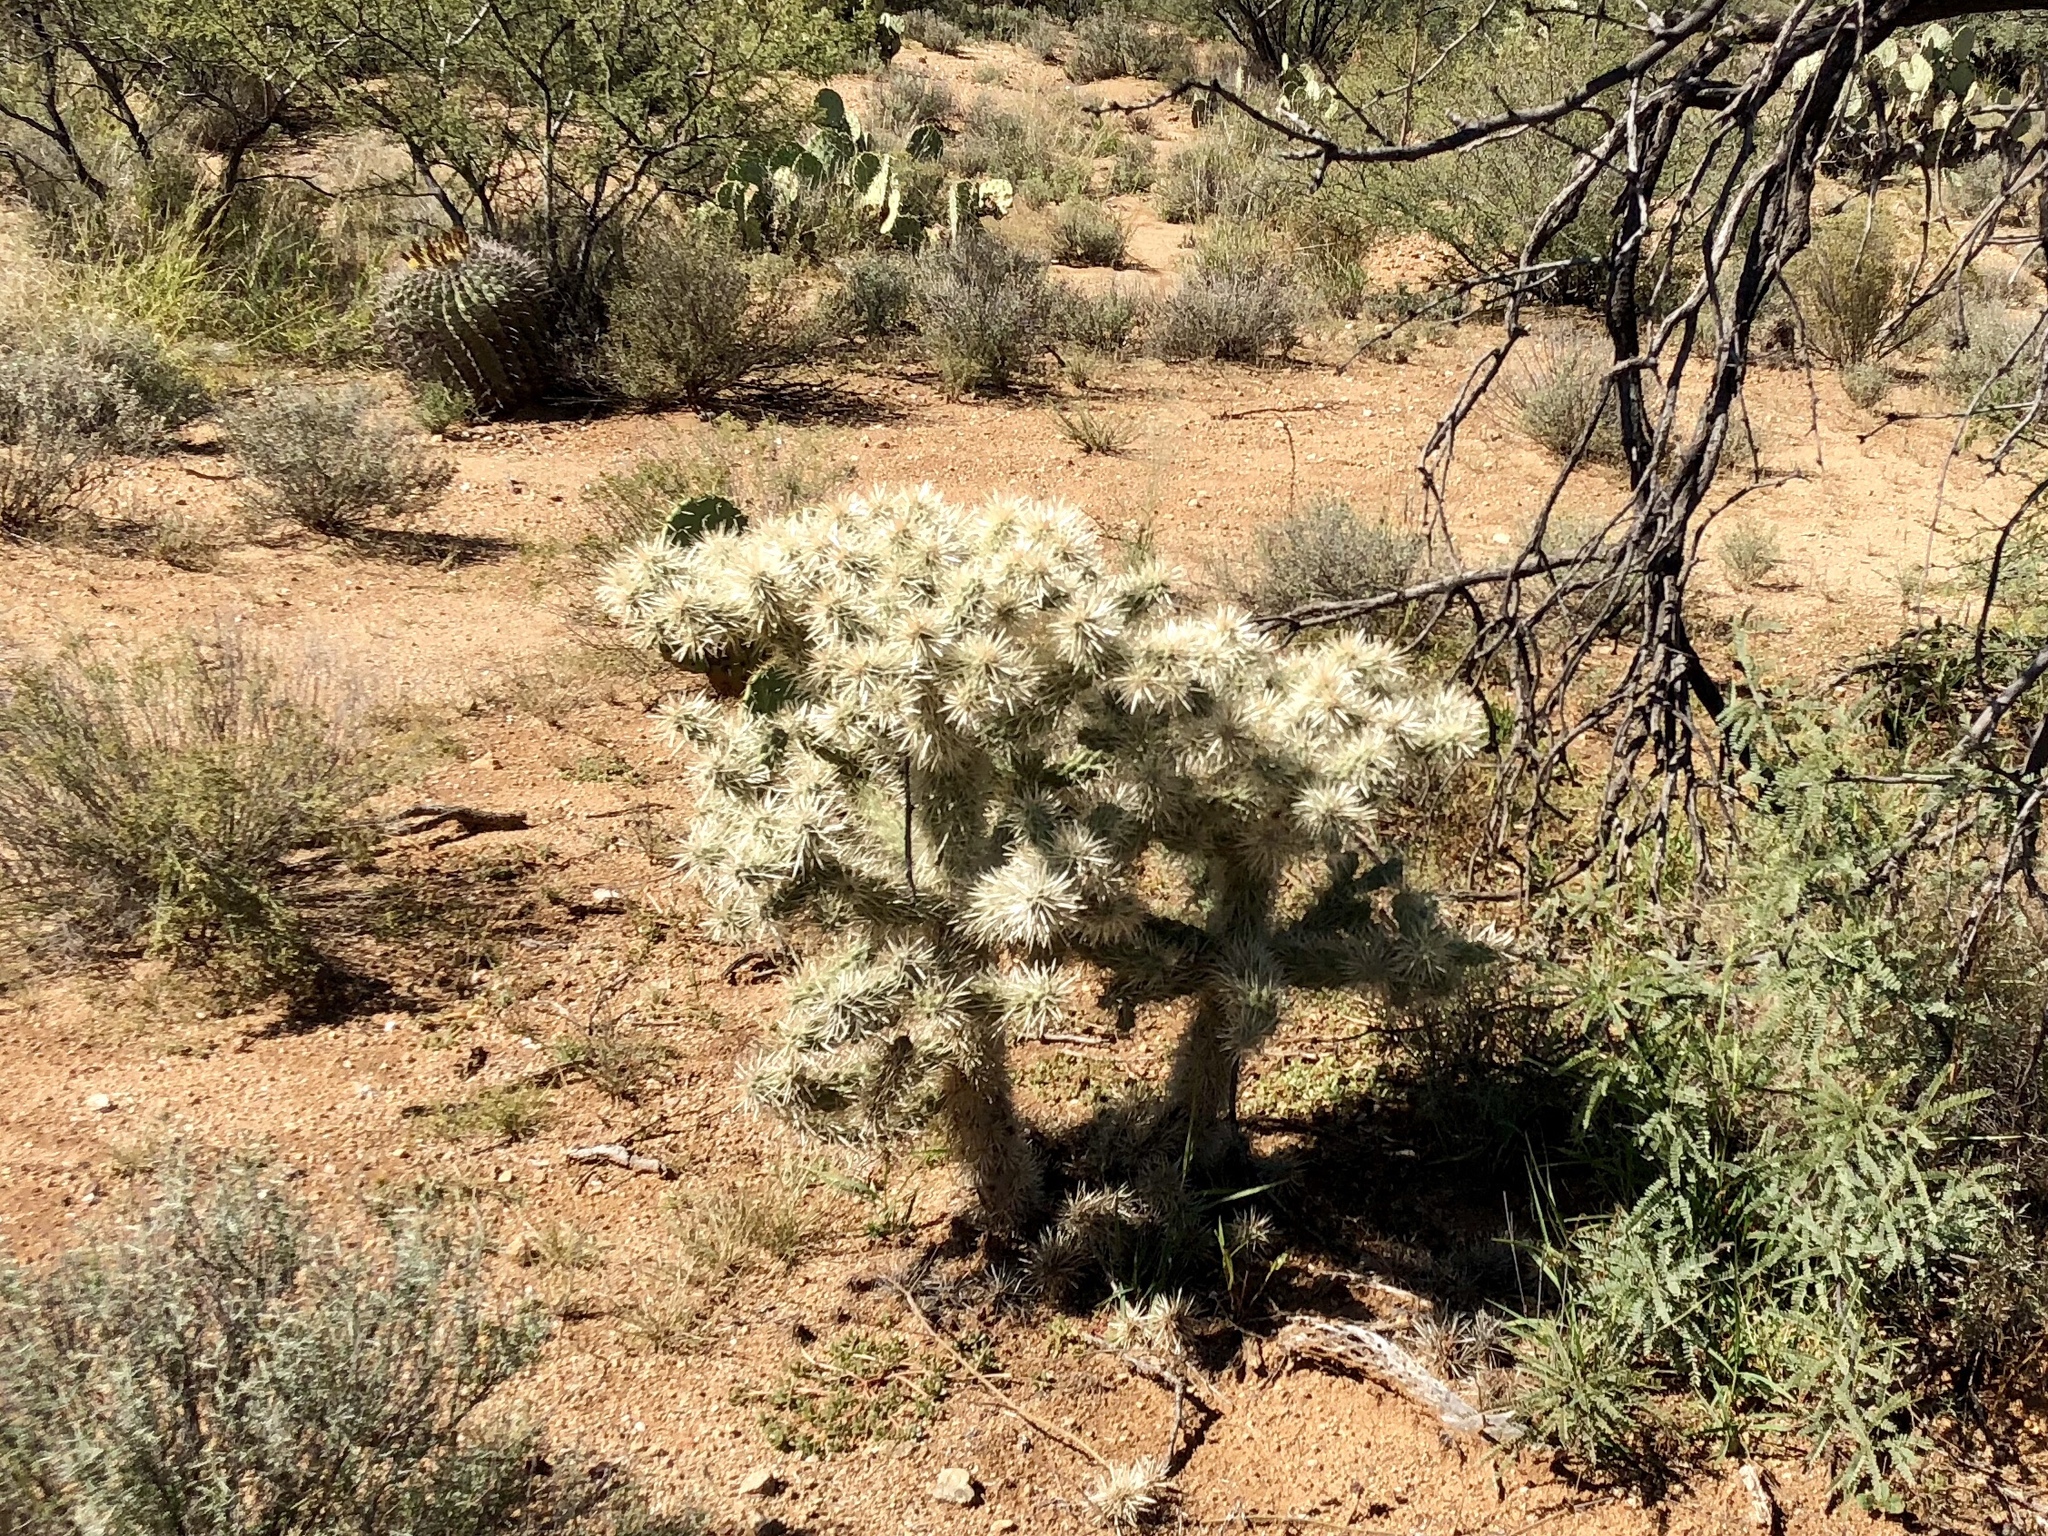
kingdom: Plantae
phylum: Tracheophyta
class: Magnoliopsida
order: Caryophyllales
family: Cactaceae
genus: Cylindropuntia
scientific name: Cylindropuntia fulgida
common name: Jumping cholla
